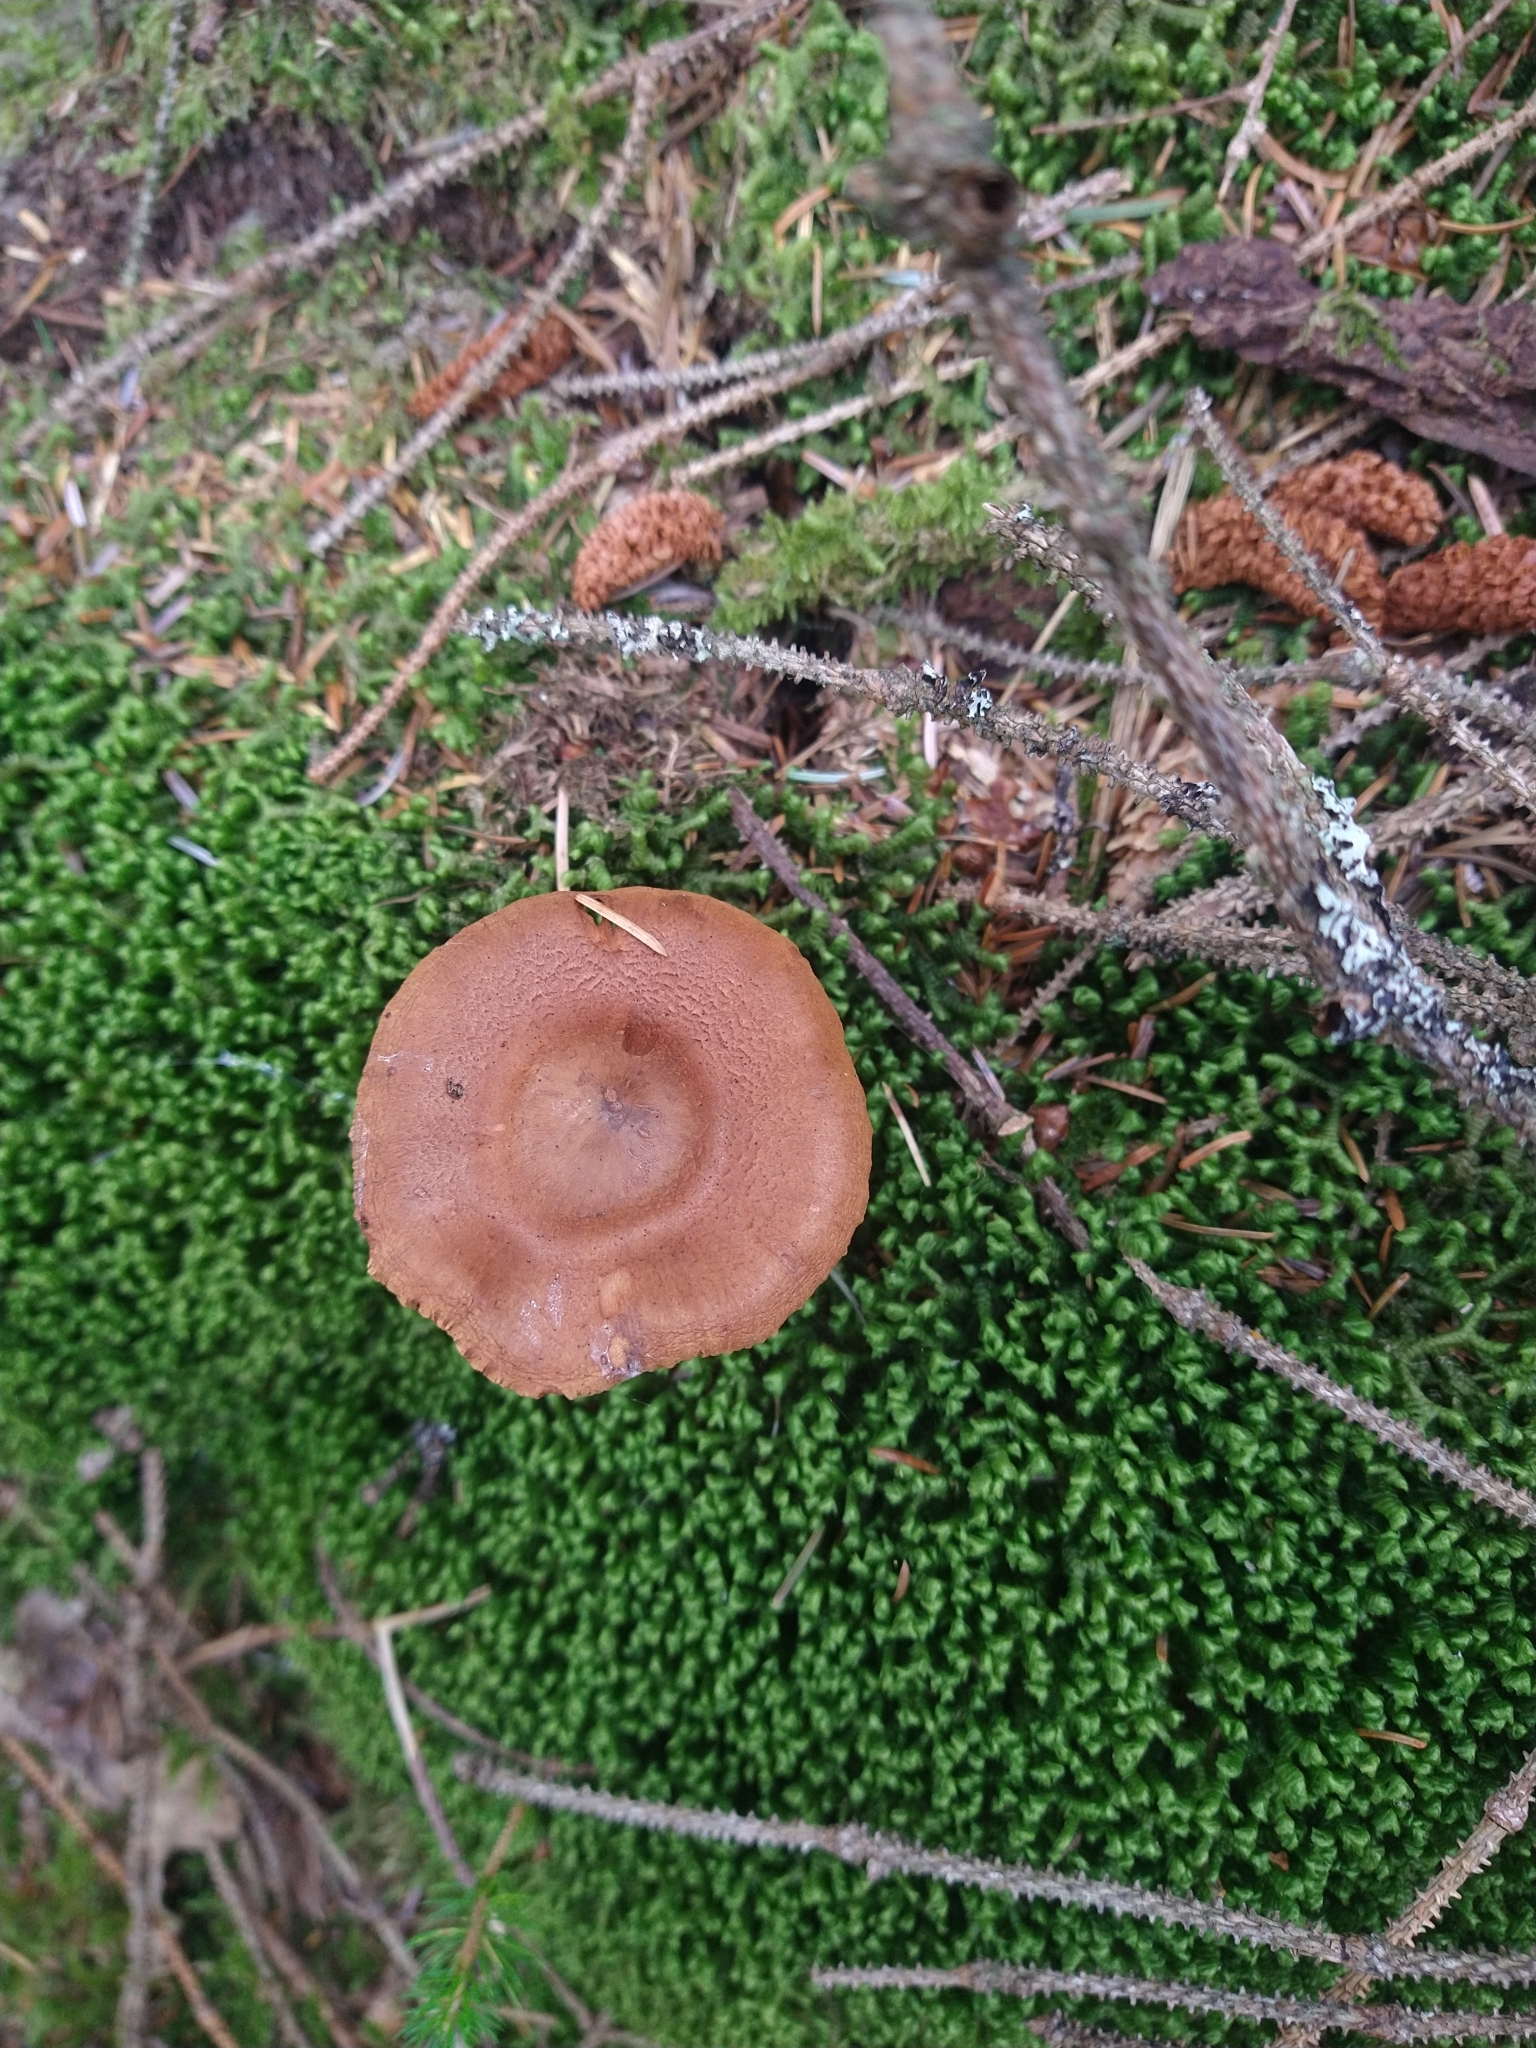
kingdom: Fungi
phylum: Basidiomycota
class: Agaricomycetes
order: Agaricales
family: Cortinariaceae
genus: Cortinarius
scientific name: Cortinarius rubellus
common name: Deadly webcap
